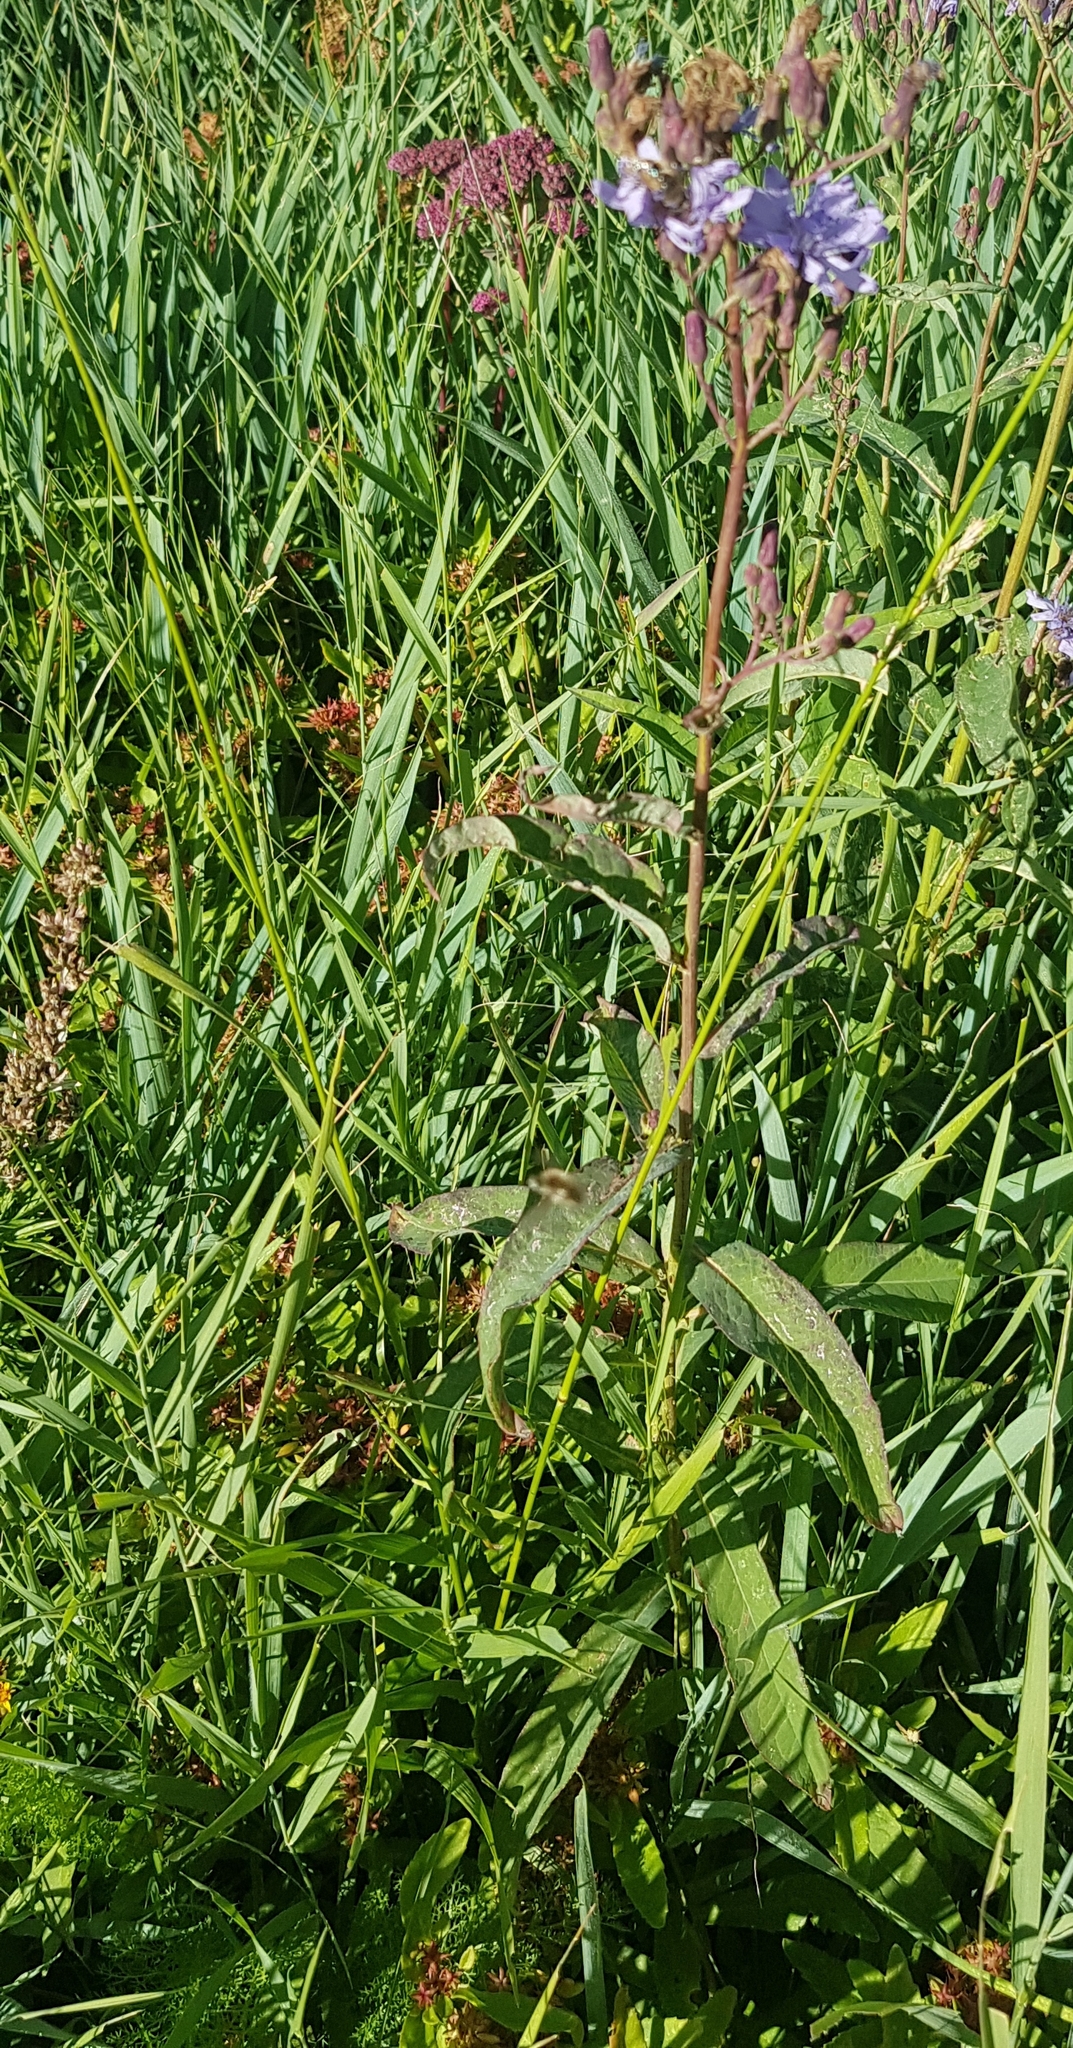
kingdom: Plantae
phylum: Tracheophyta
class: Magnoliopsida
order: Asterales
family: Asteraceae
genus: Lactuca
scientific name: Lactuca sibirica
